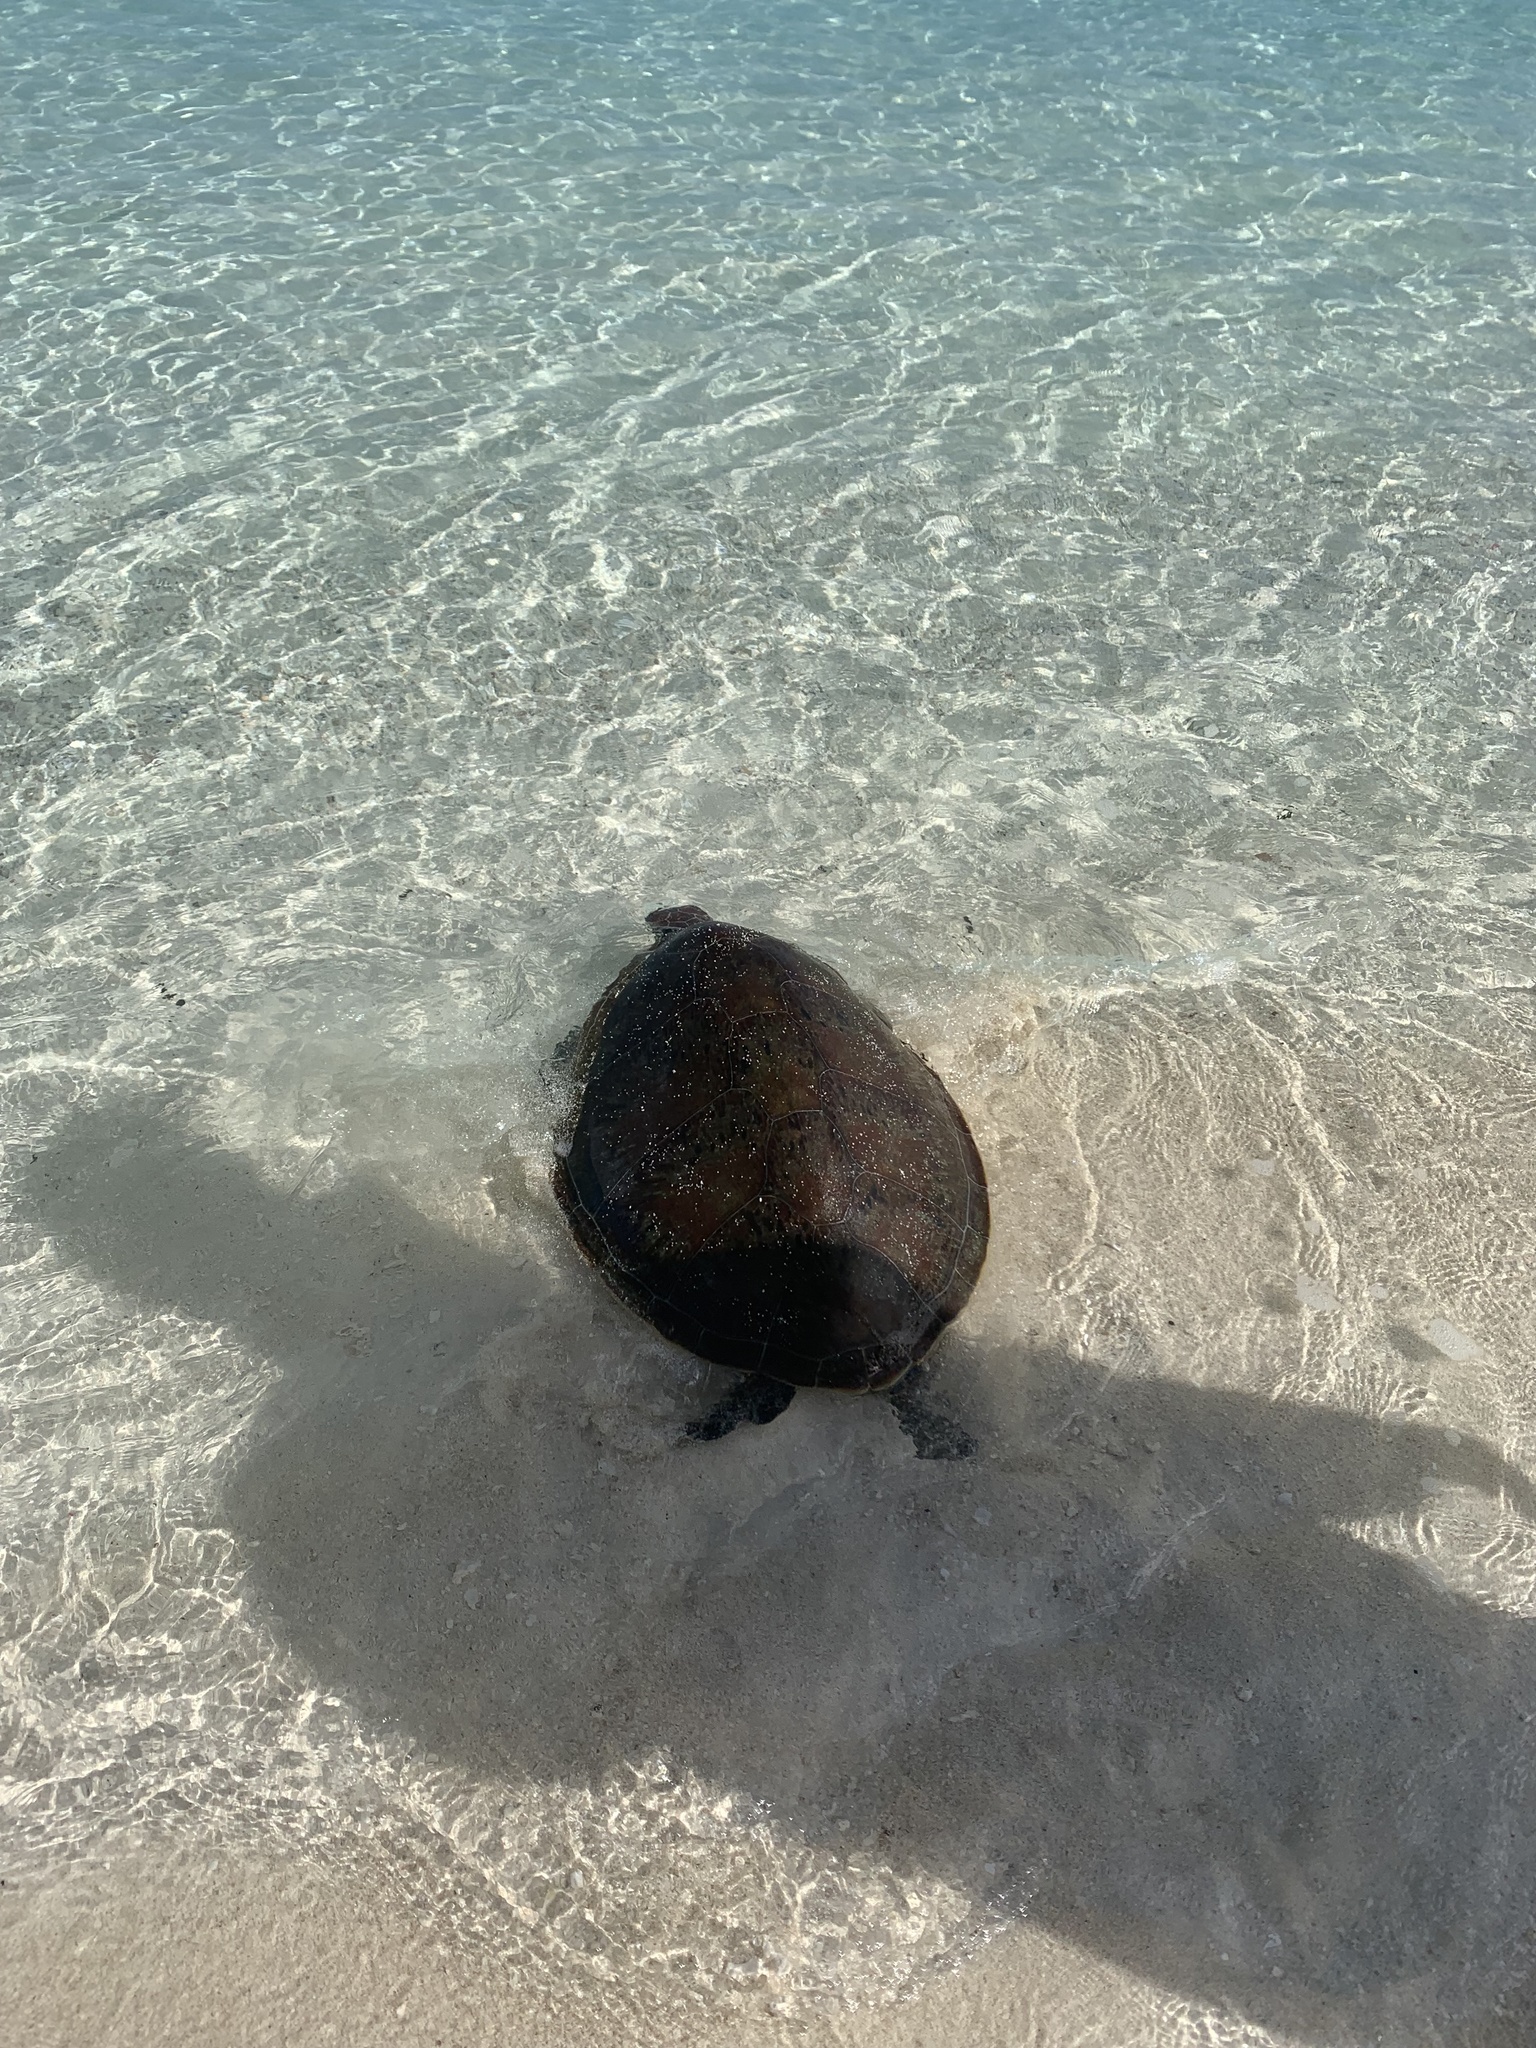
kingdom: Animalia
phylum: Chordata
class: Testudines
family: Cheloniidae
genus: Chelonia
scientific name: Chelonia mydas
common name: Green turtle
